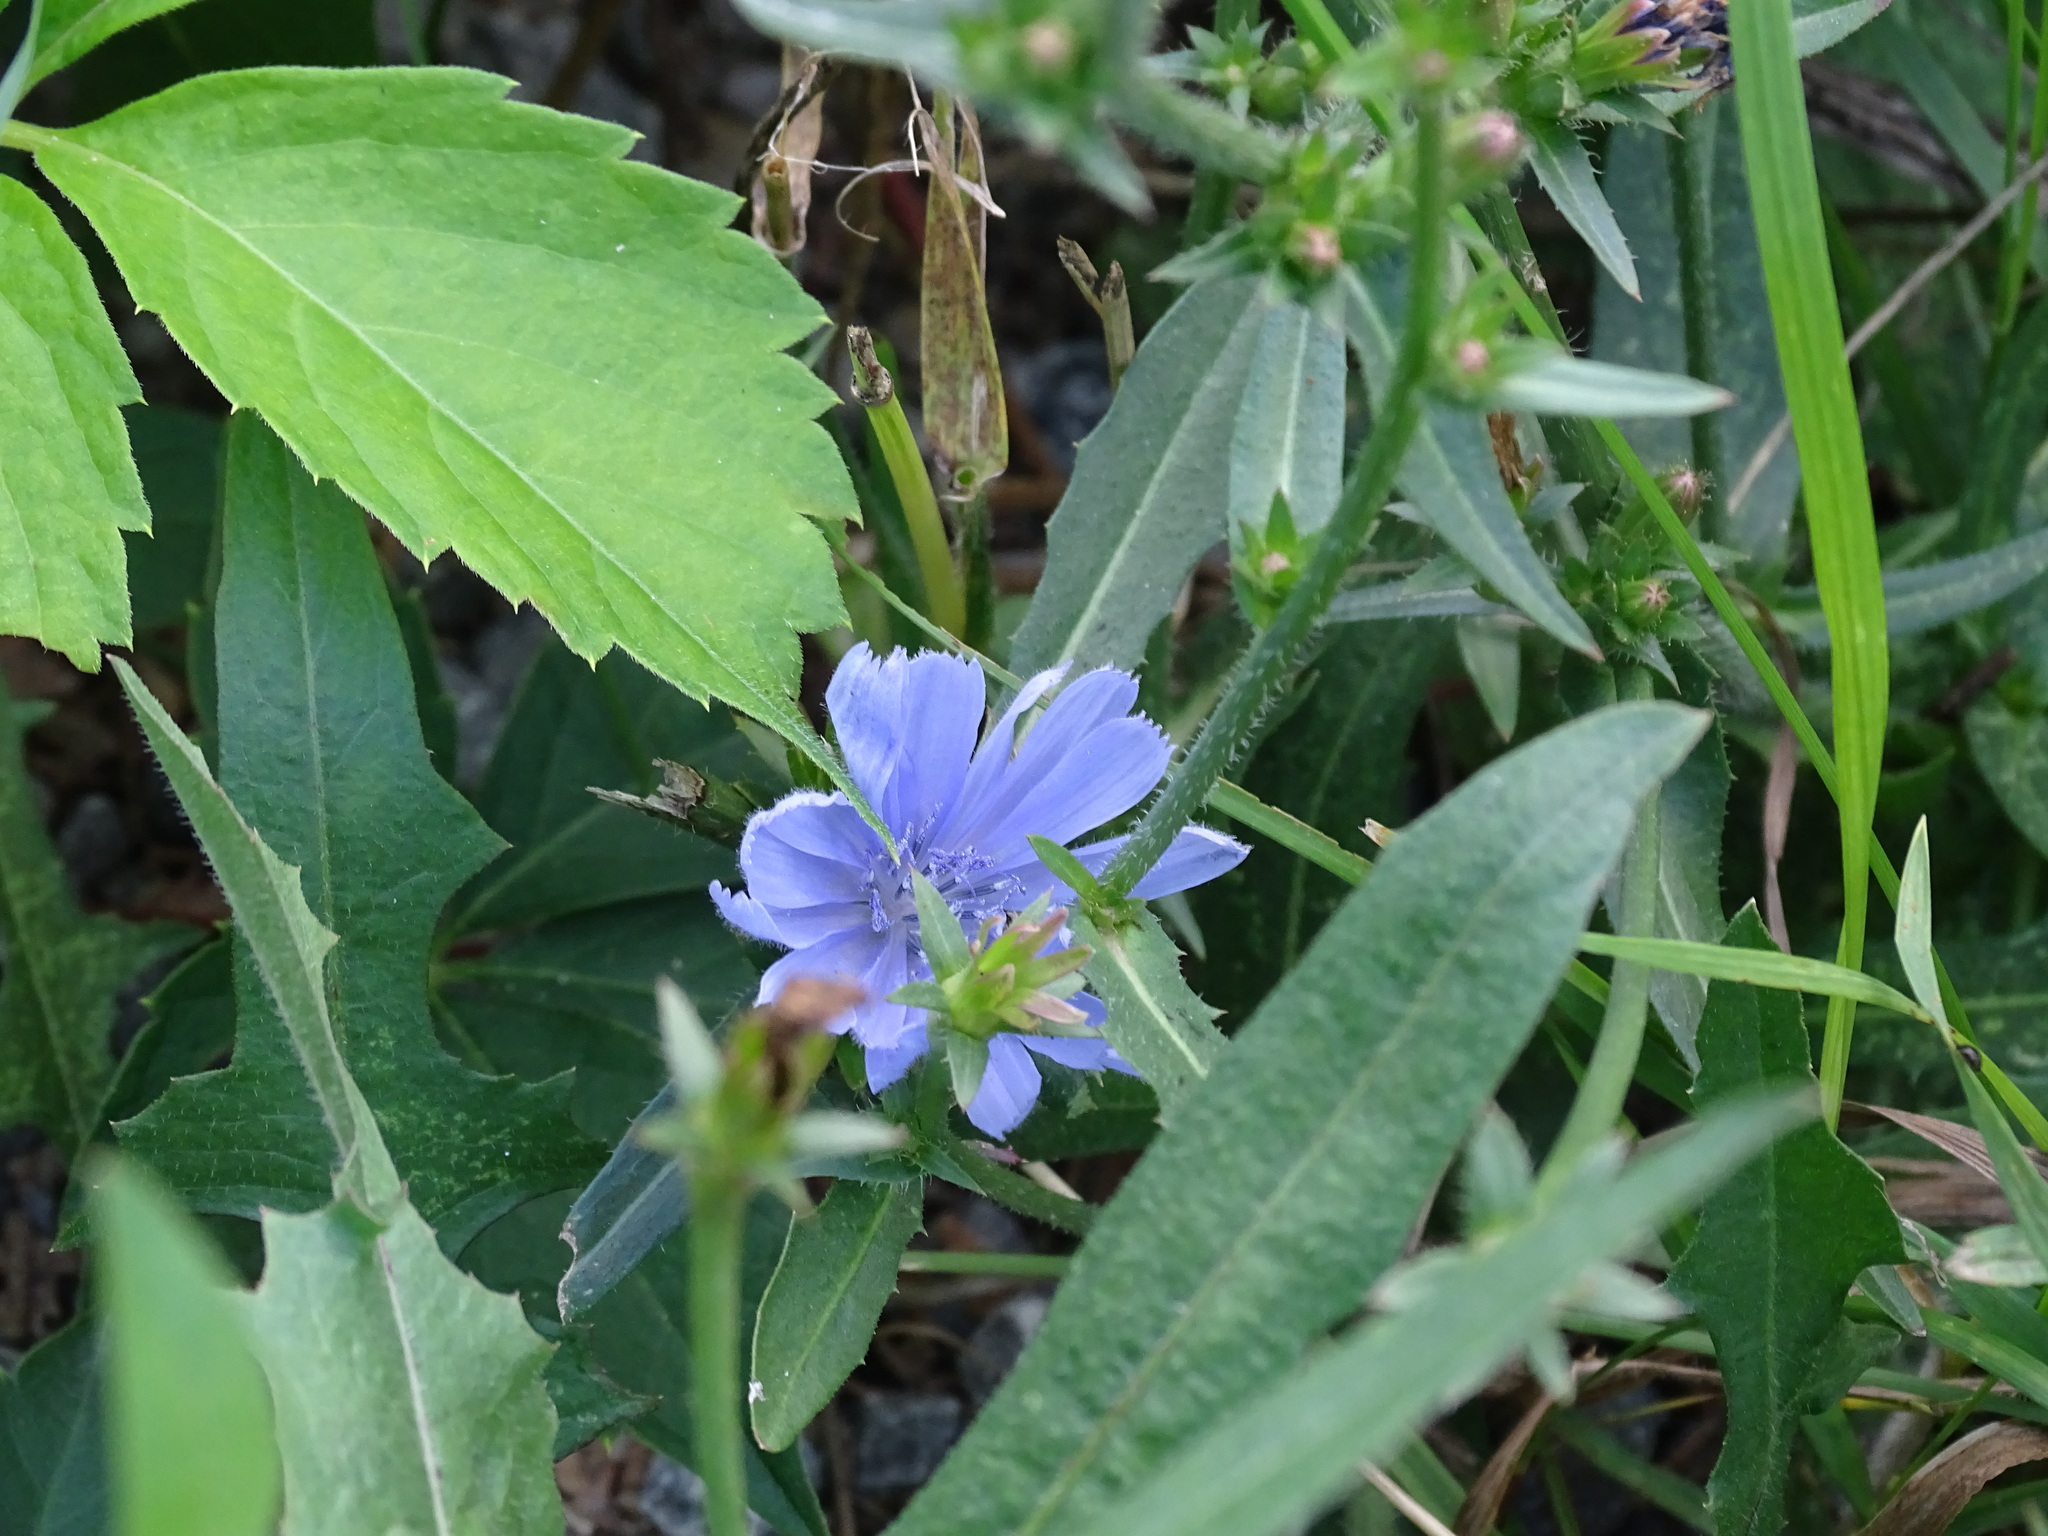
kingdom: Plantae
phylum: Tracheophyta
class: Magnoliopsida
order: Asterales
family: Asteraceae
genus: Cichorium
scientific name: Cichorium intybus
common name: Chicory
